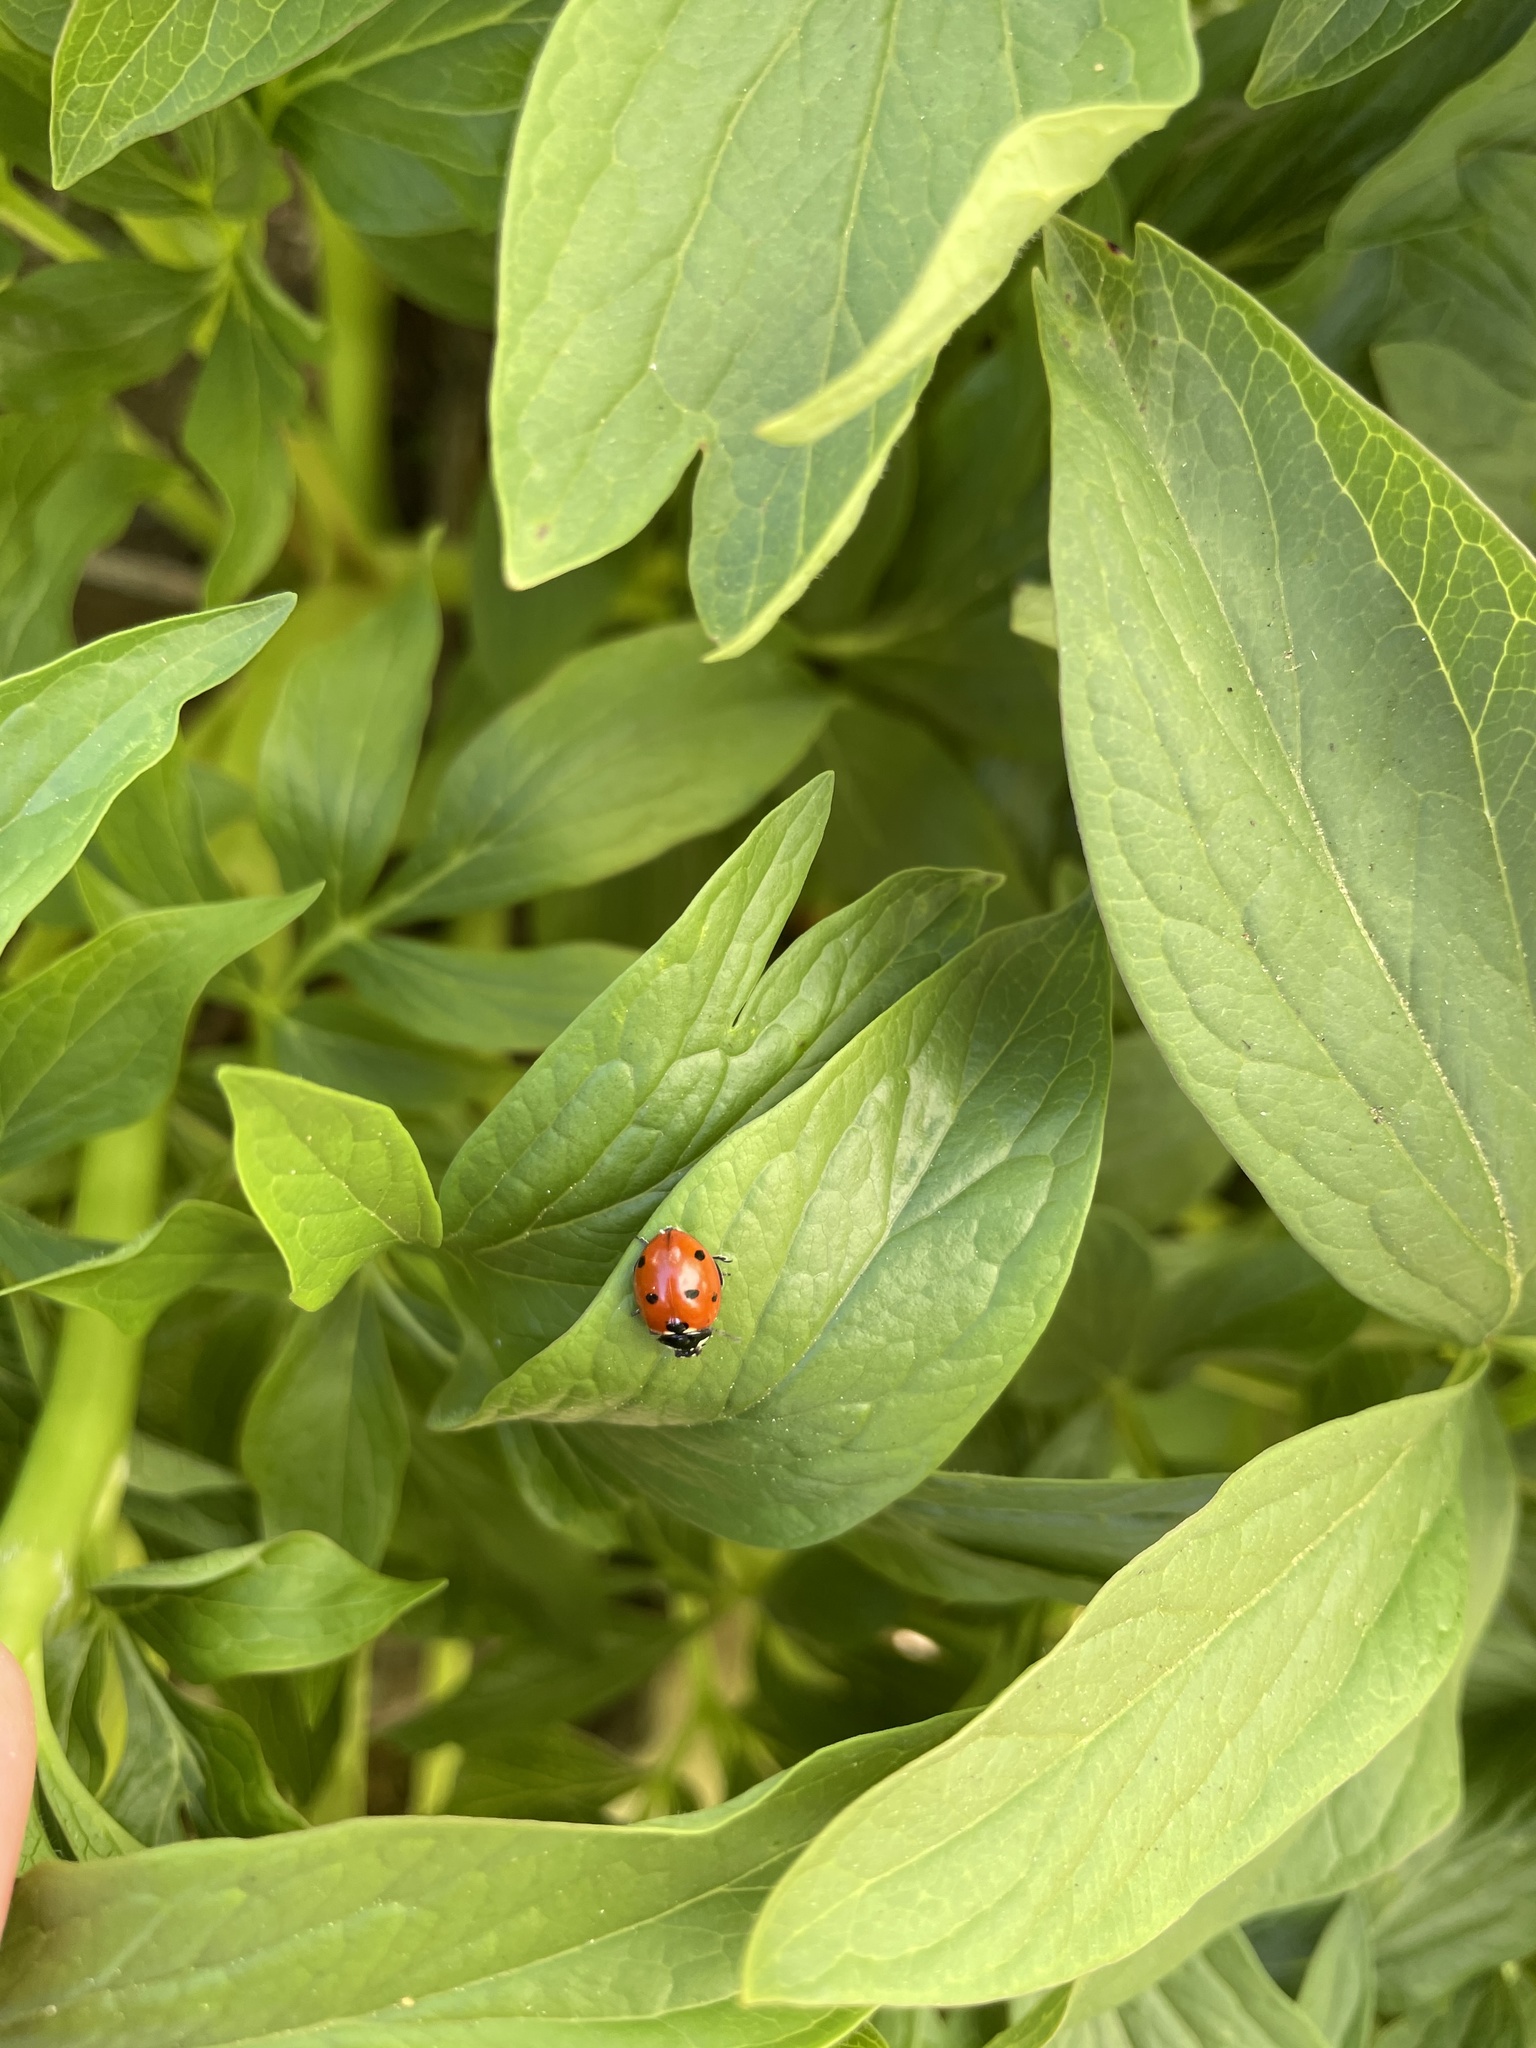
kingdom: Animalia
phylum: Arthropoda
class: Insecta
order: Coleoptera
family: Coccinellidae
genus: Coccinella
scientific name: Coccinella septempunctata
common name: Sevenspotted lady beetle
